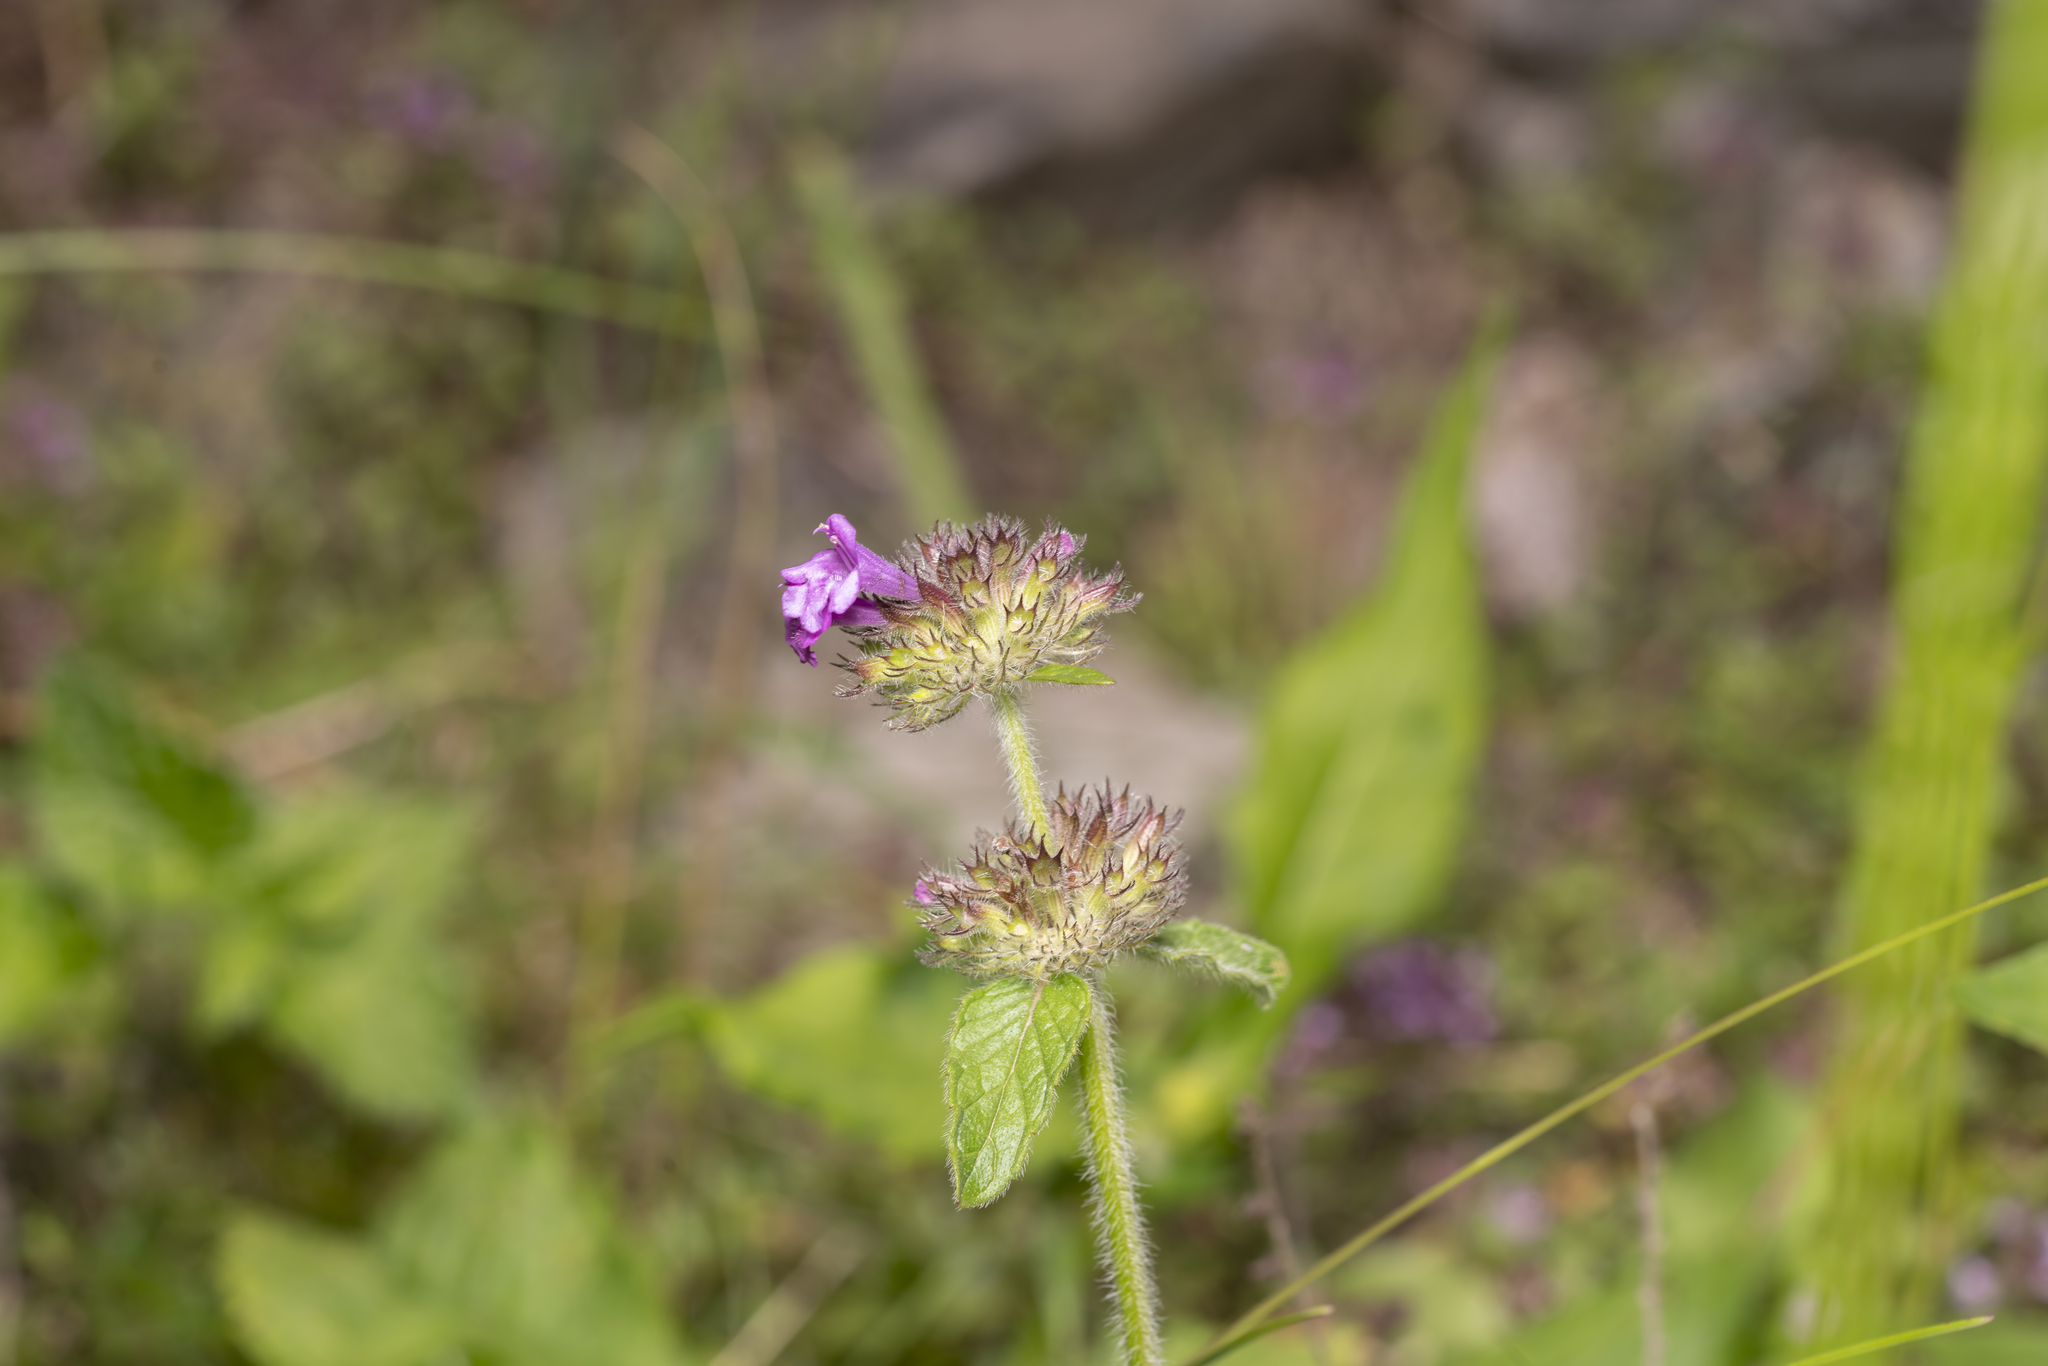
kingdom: Plantae
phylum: Tracheophyta
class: Magnoliopsida
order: Lamiales
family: Lamiaceae
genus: Clinopodium
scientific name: Clinopodium vulgare
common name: Wild basil
